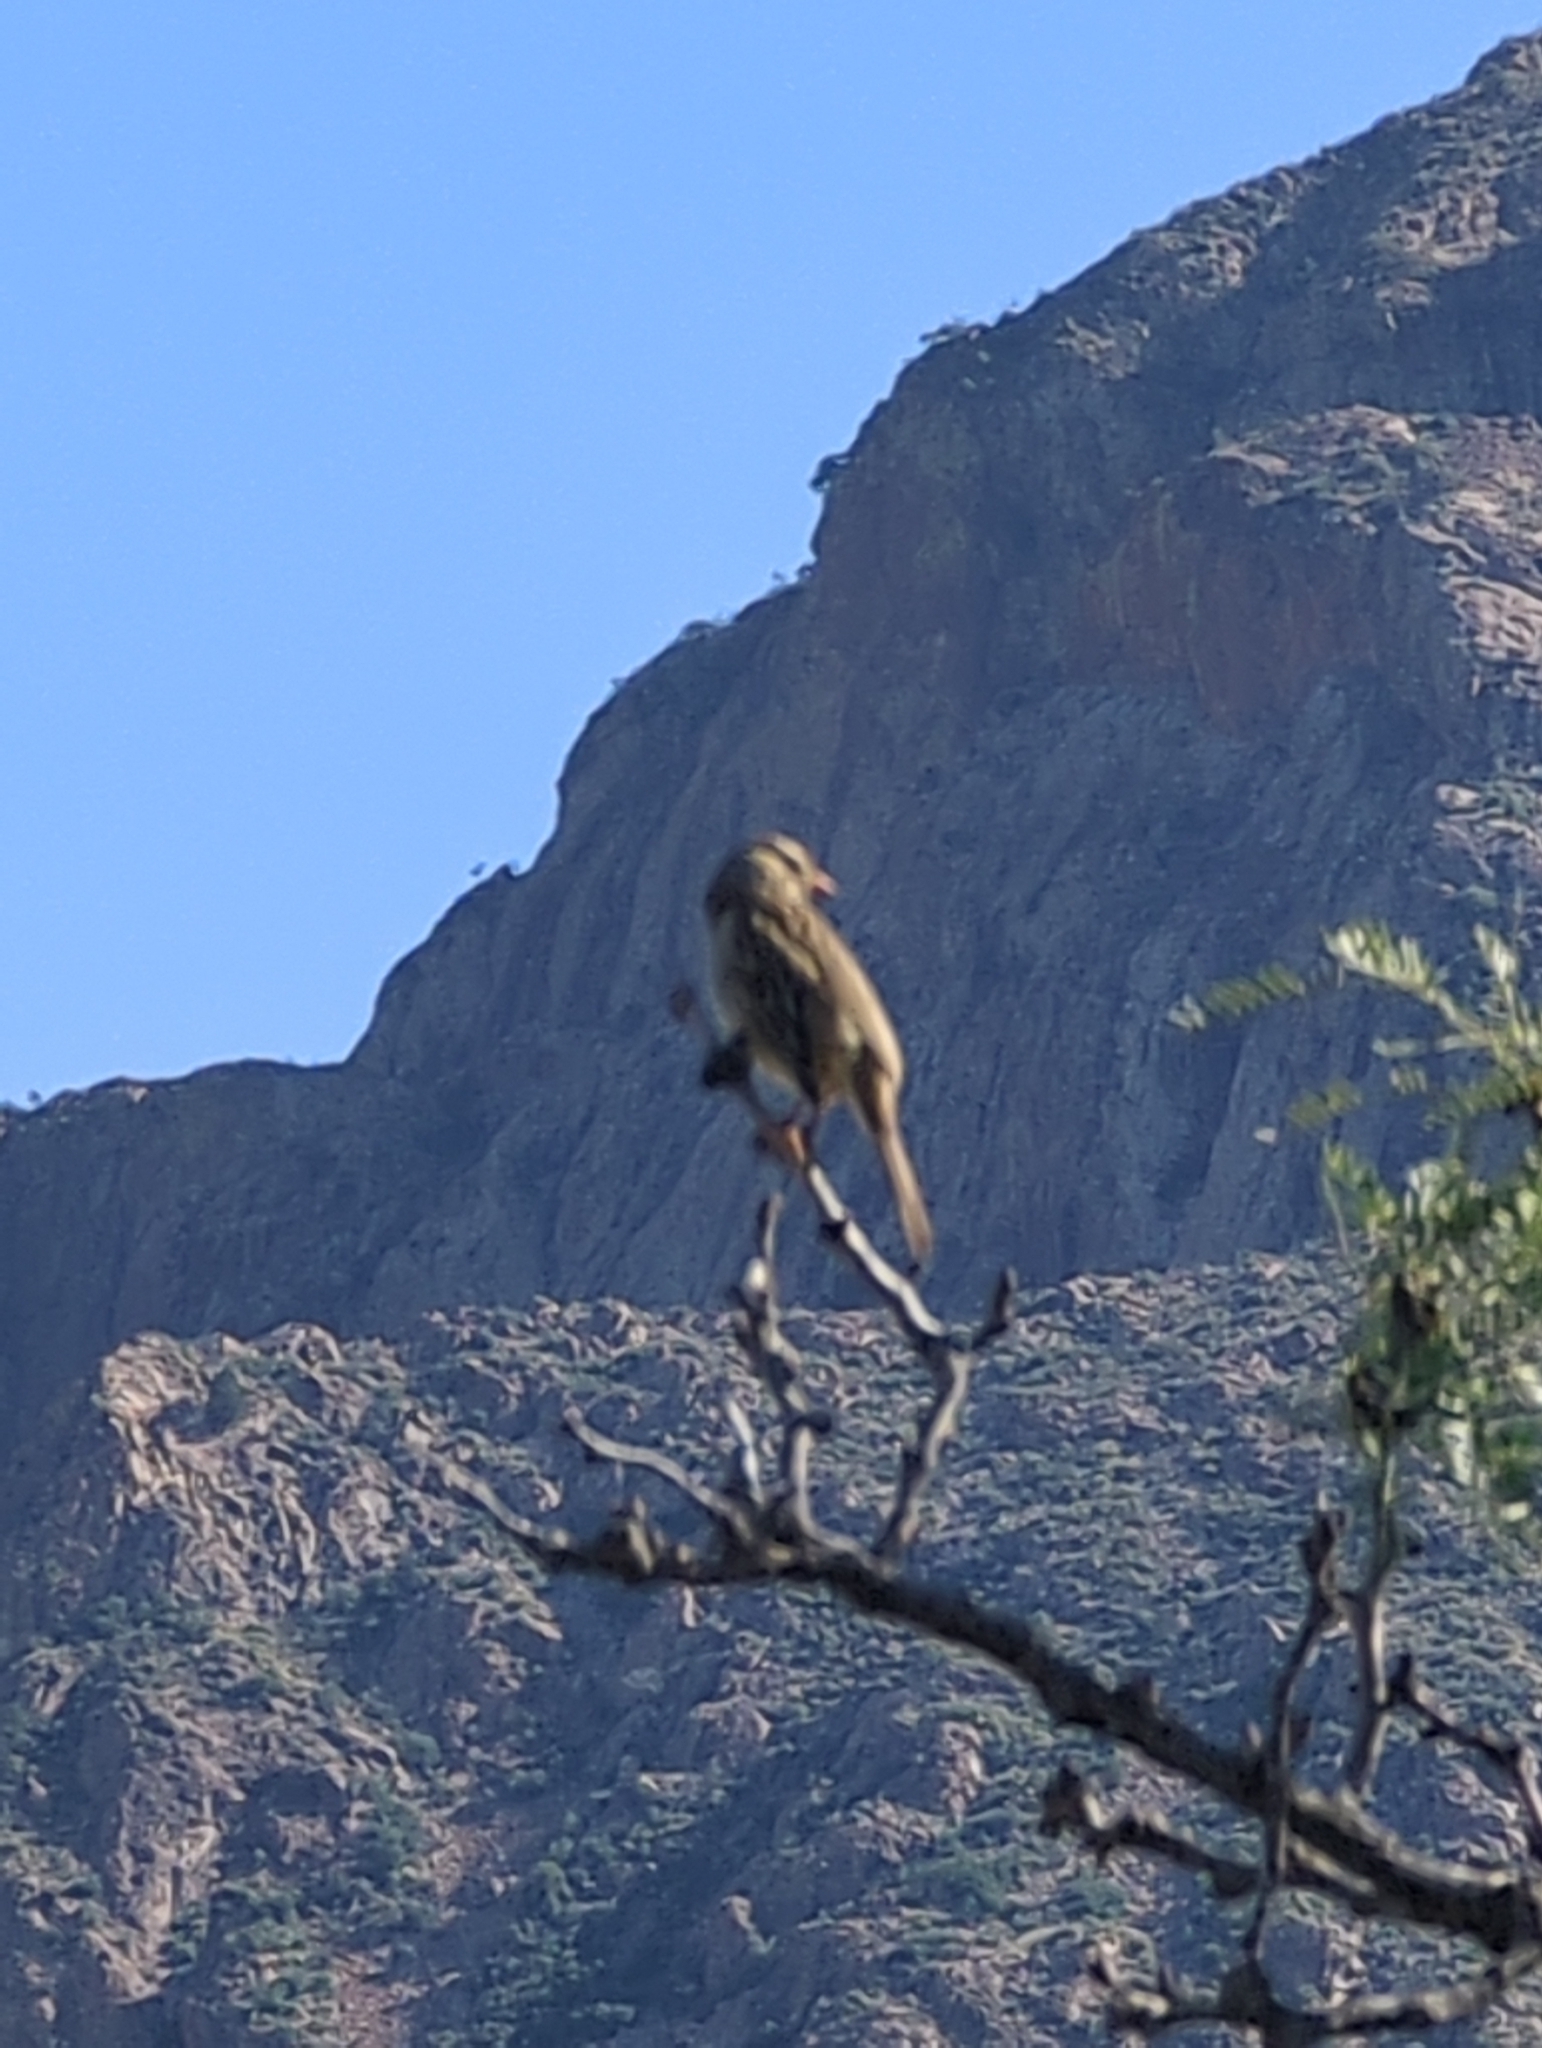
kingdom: Animalia
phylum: Chordata
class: Aves
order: Passeriformes
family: Passerellidae
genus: Zonotrichia
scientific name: Zonotrichia leucophrys
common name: White-crowned sparrow
